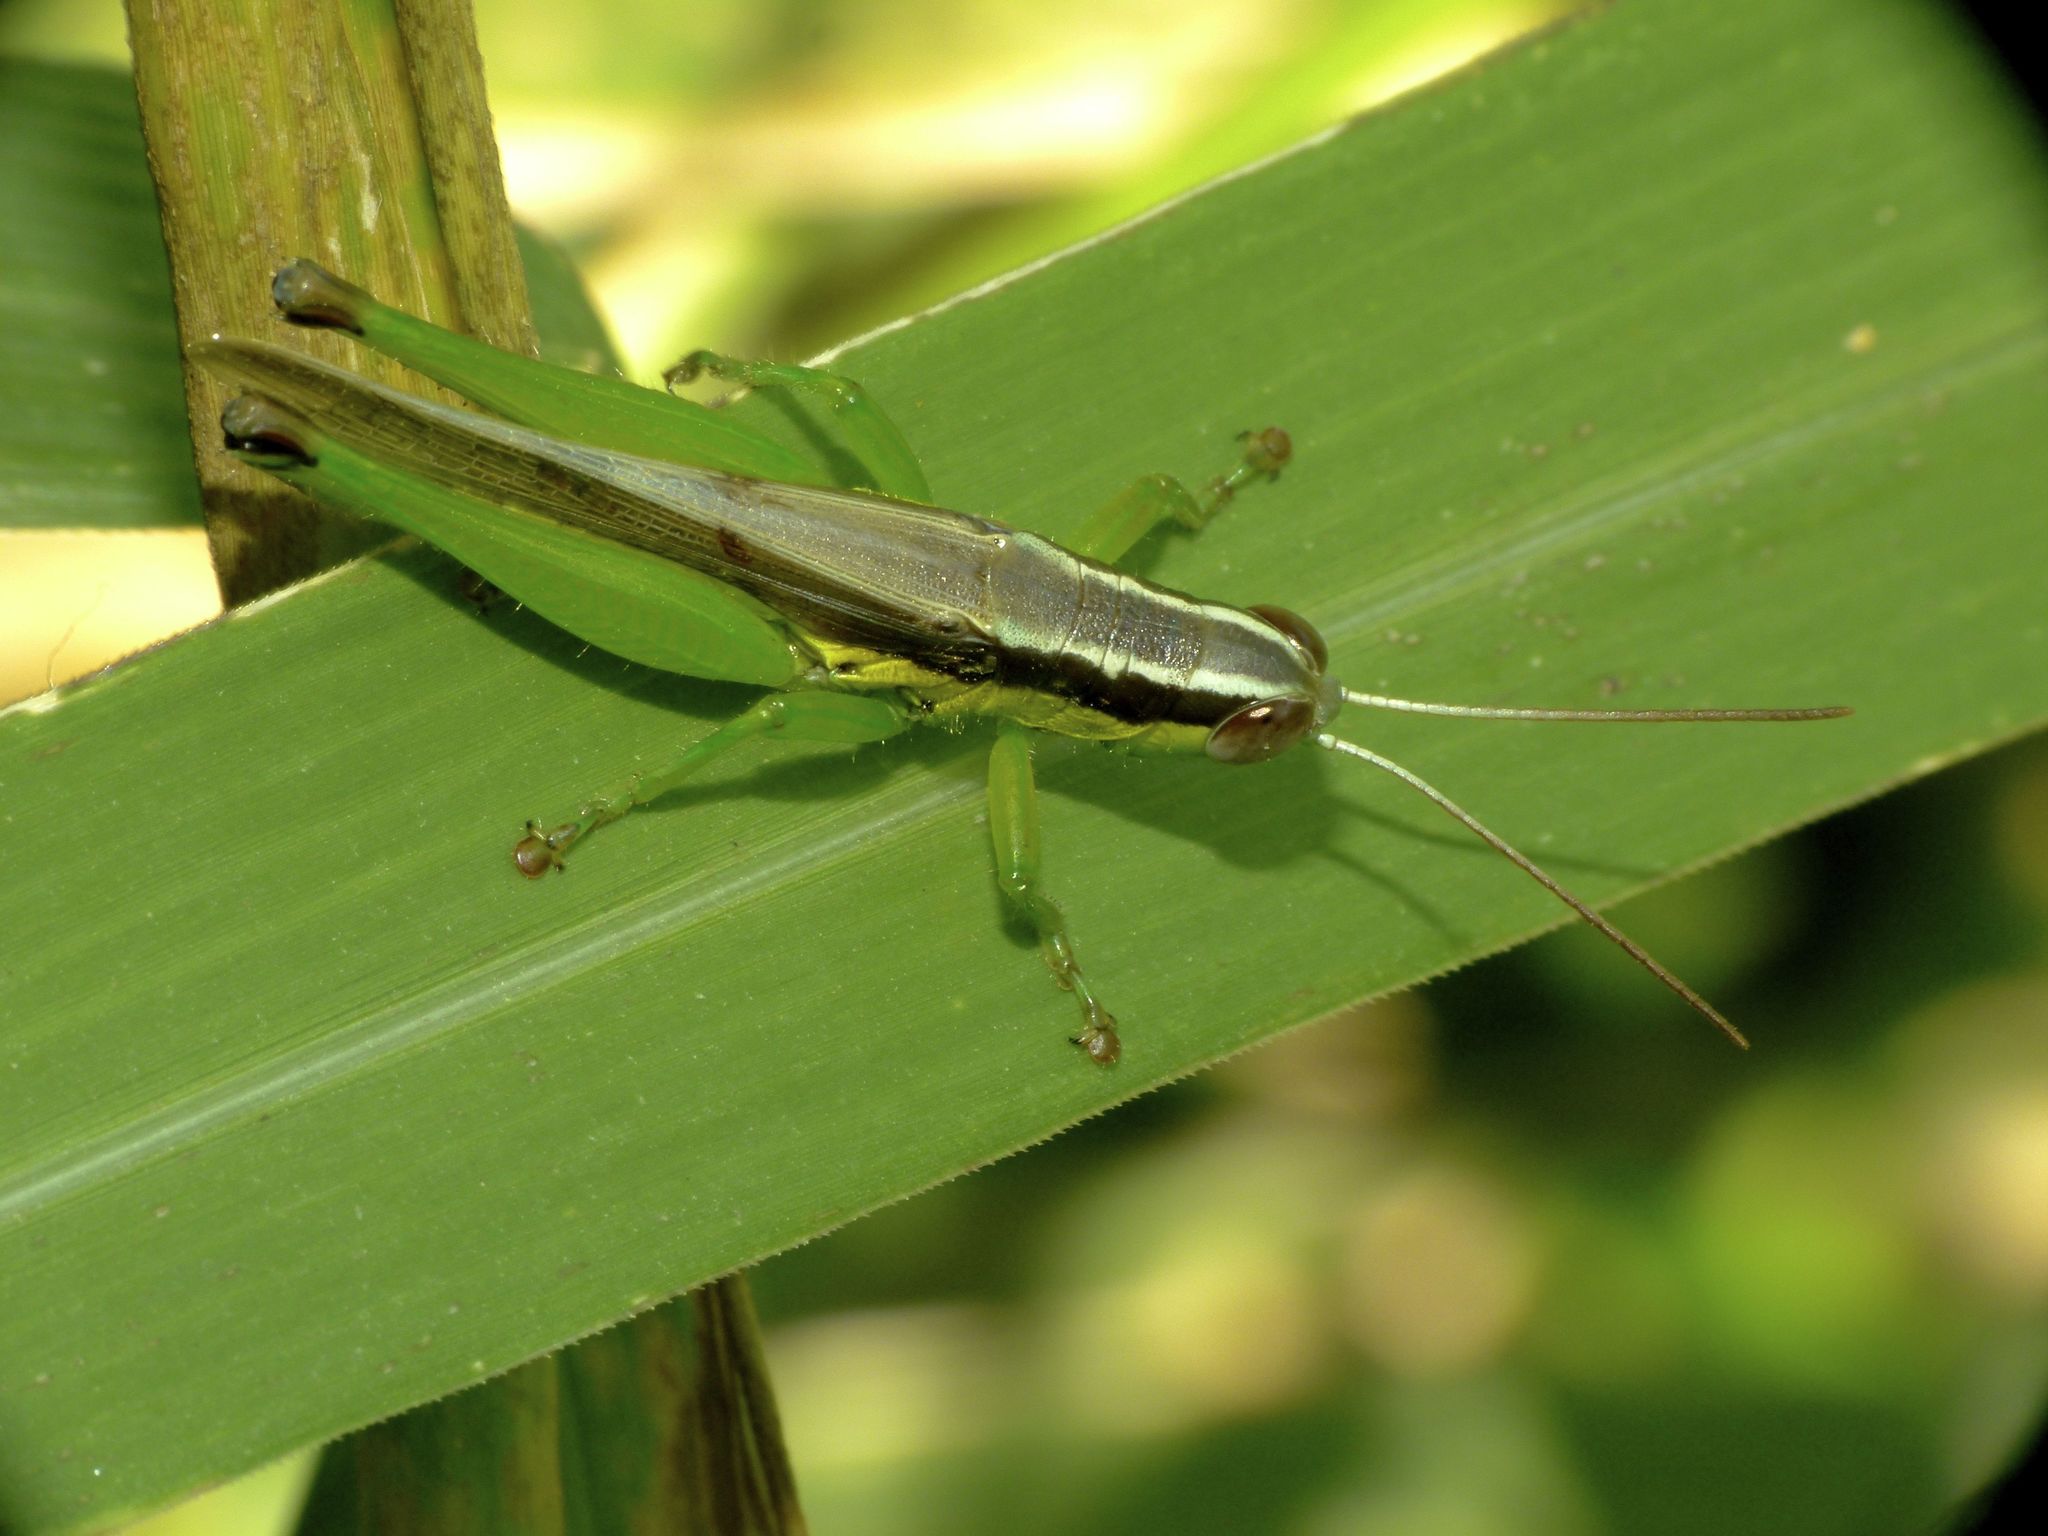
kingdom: Animalia
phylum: Arthropoda
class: Insecta
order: Orthoptera
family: Acrididae
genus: Oxya
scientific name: Oxya japonica
